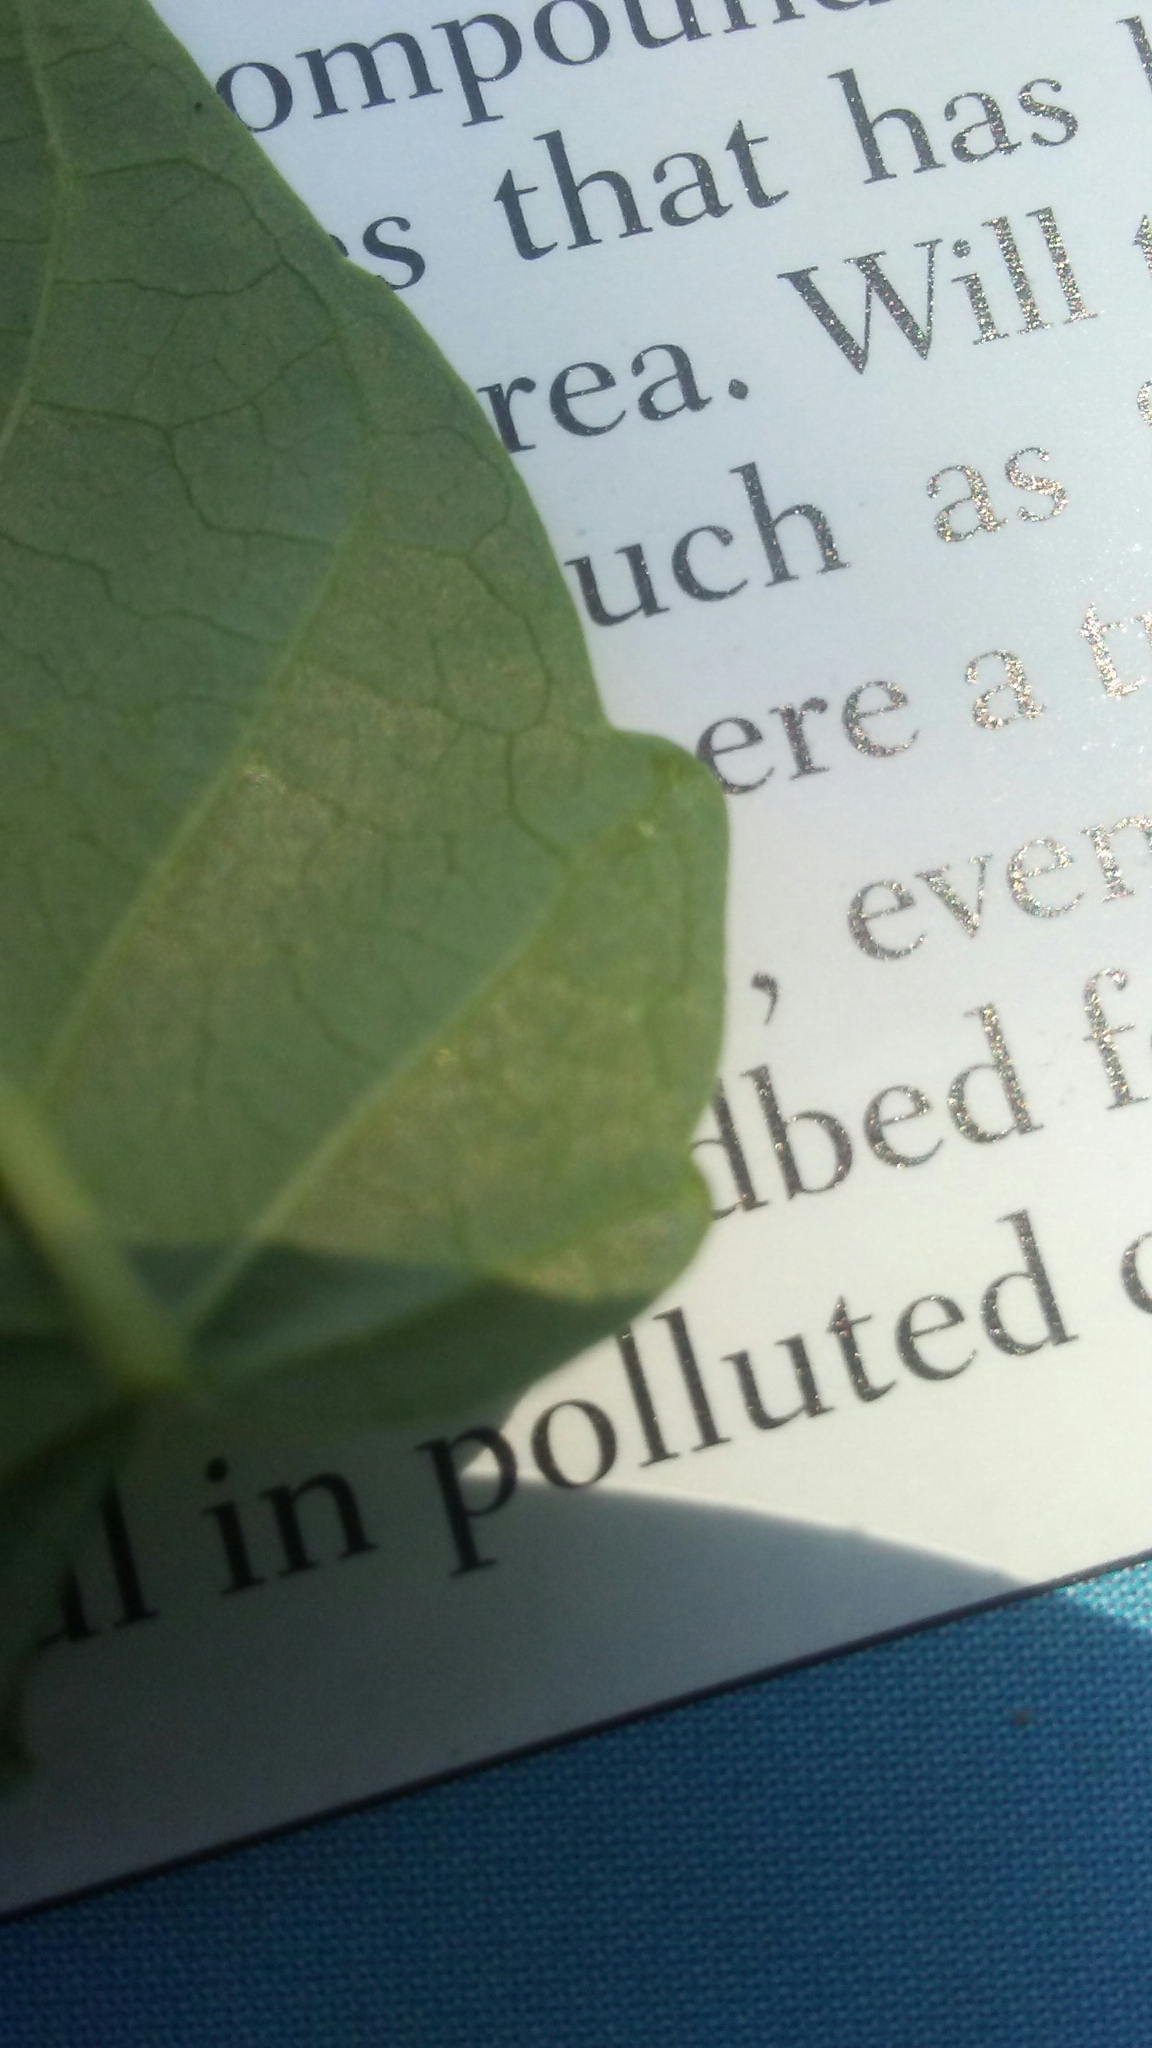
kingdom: Plantae
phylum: Tracheophyta
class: Magnoliopsida
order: Sapindales
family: Simaroubaceae
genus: Ailanthus
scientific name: Ailanthus altissima
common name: Tree-of-heaven
